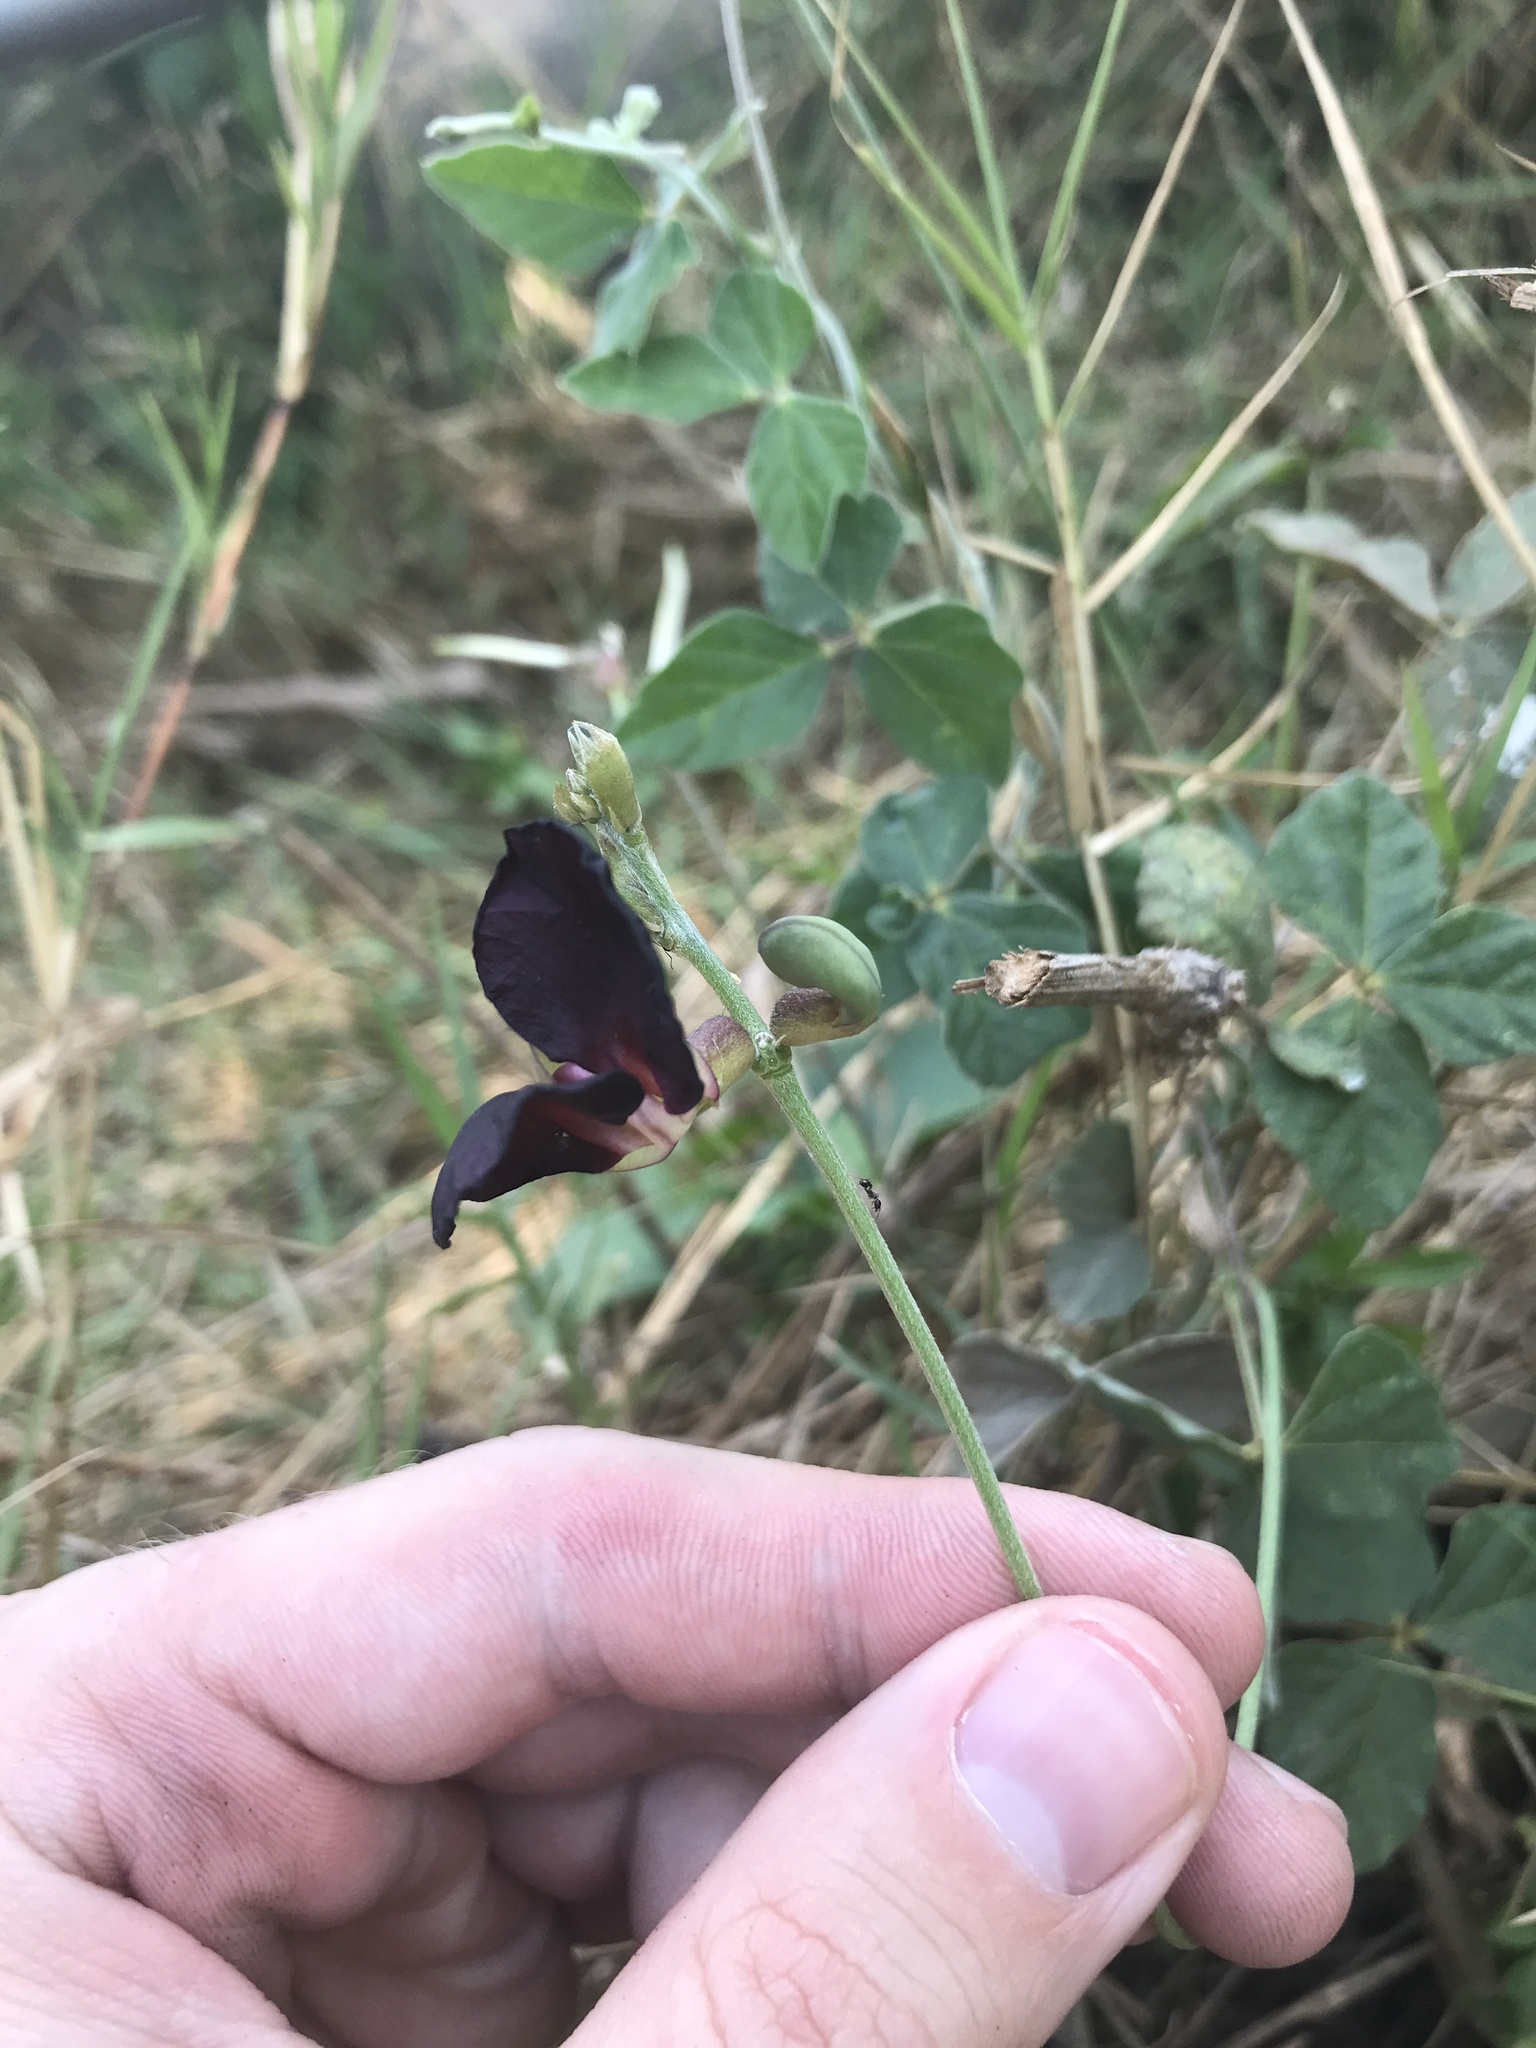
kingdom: Plantae
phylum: Tracheophyta
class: Magnoliopsida
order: Fabales
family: Fabaceae
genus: Macroptilium
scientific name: Macroptilium atropurpureum
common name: Purple bushbean
